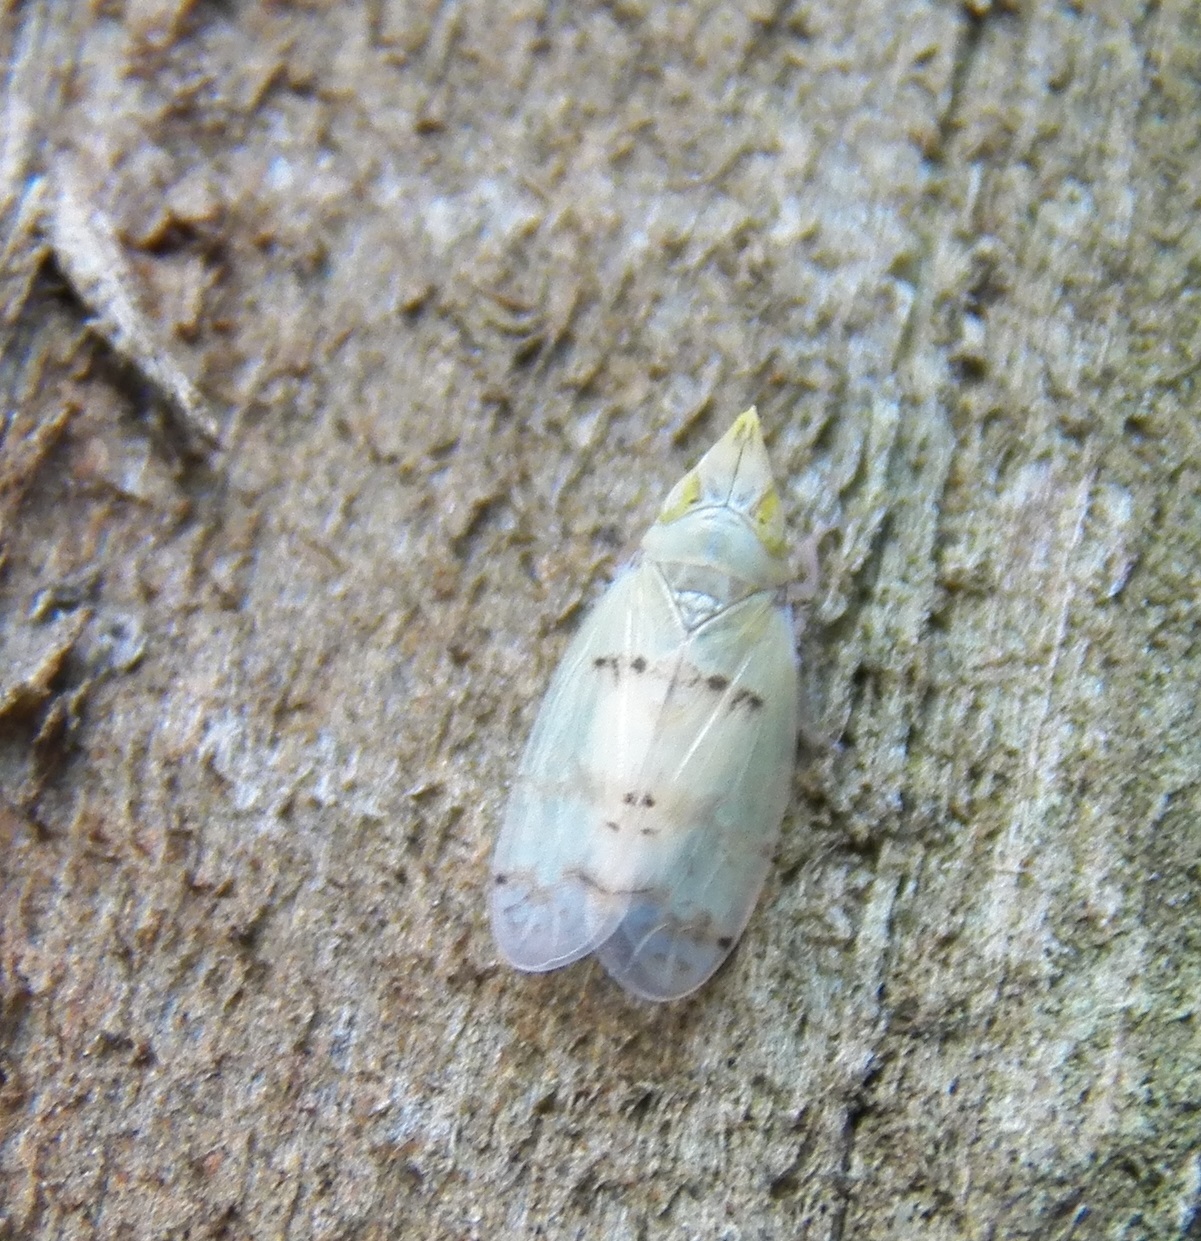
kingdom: Animalia
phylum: Arthropoda
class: Insecta
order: Hemiptera
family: Cicadellidae
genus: Japananus
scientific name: Japananus hyalinus
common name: The japanese maple leafhopper
